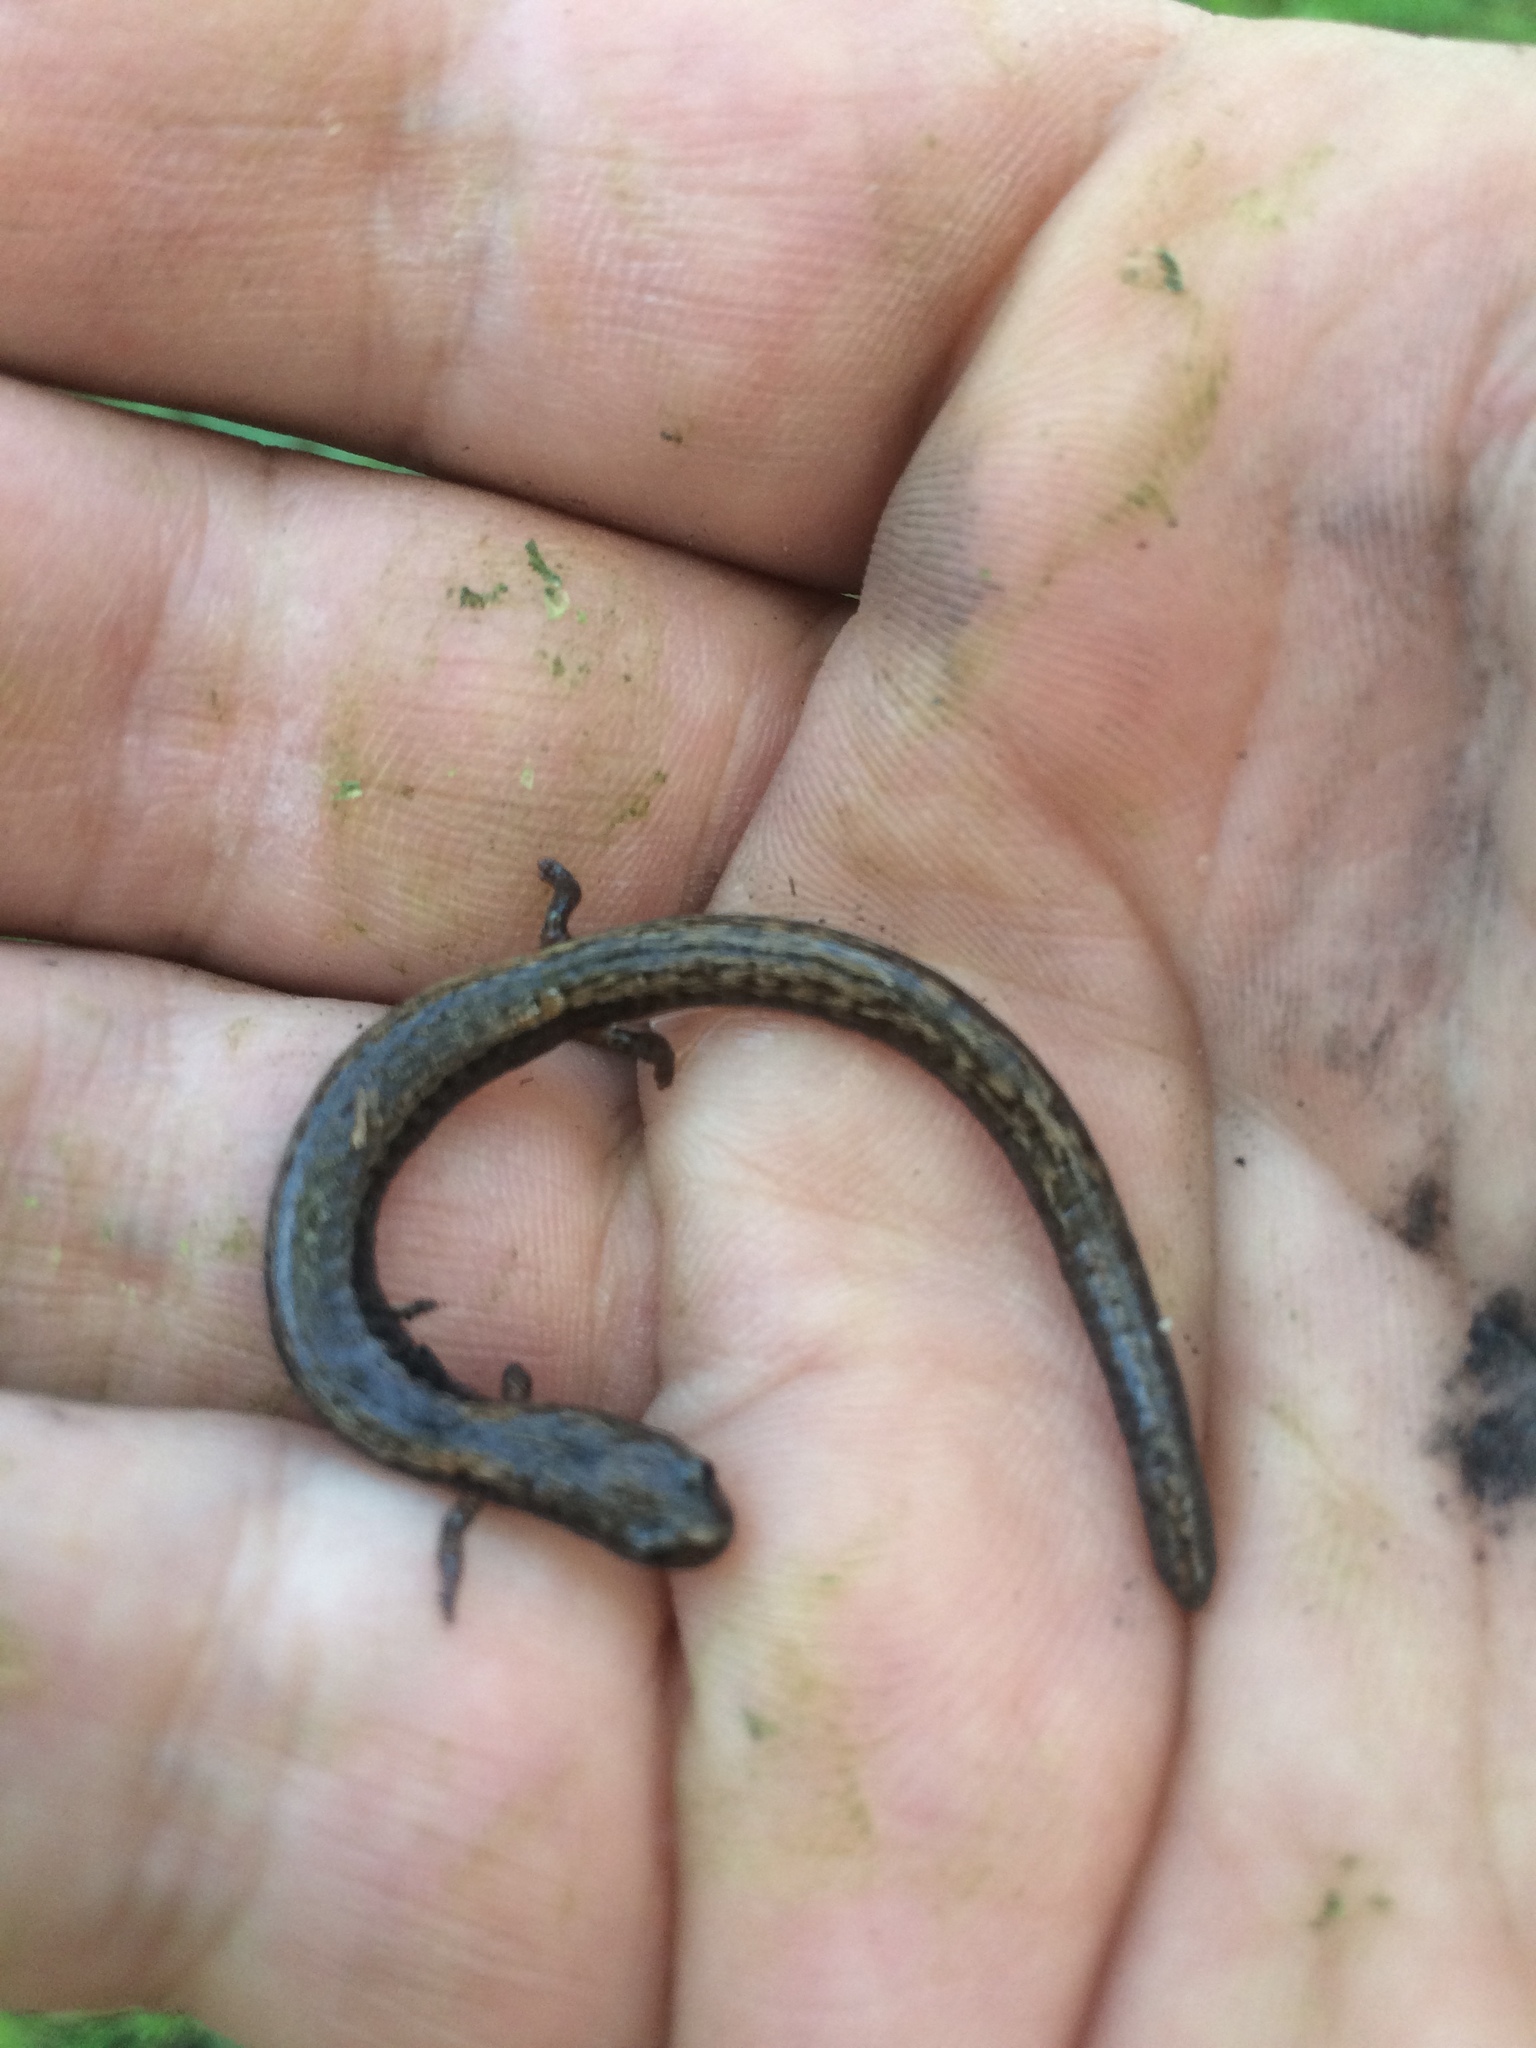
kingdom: Animalia
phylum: Chordata
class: Amphibia
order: Caudata
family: Plethodontidae
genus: Batrachoseps
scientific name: Batrachoseps attenuatus
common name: California slender salamander
